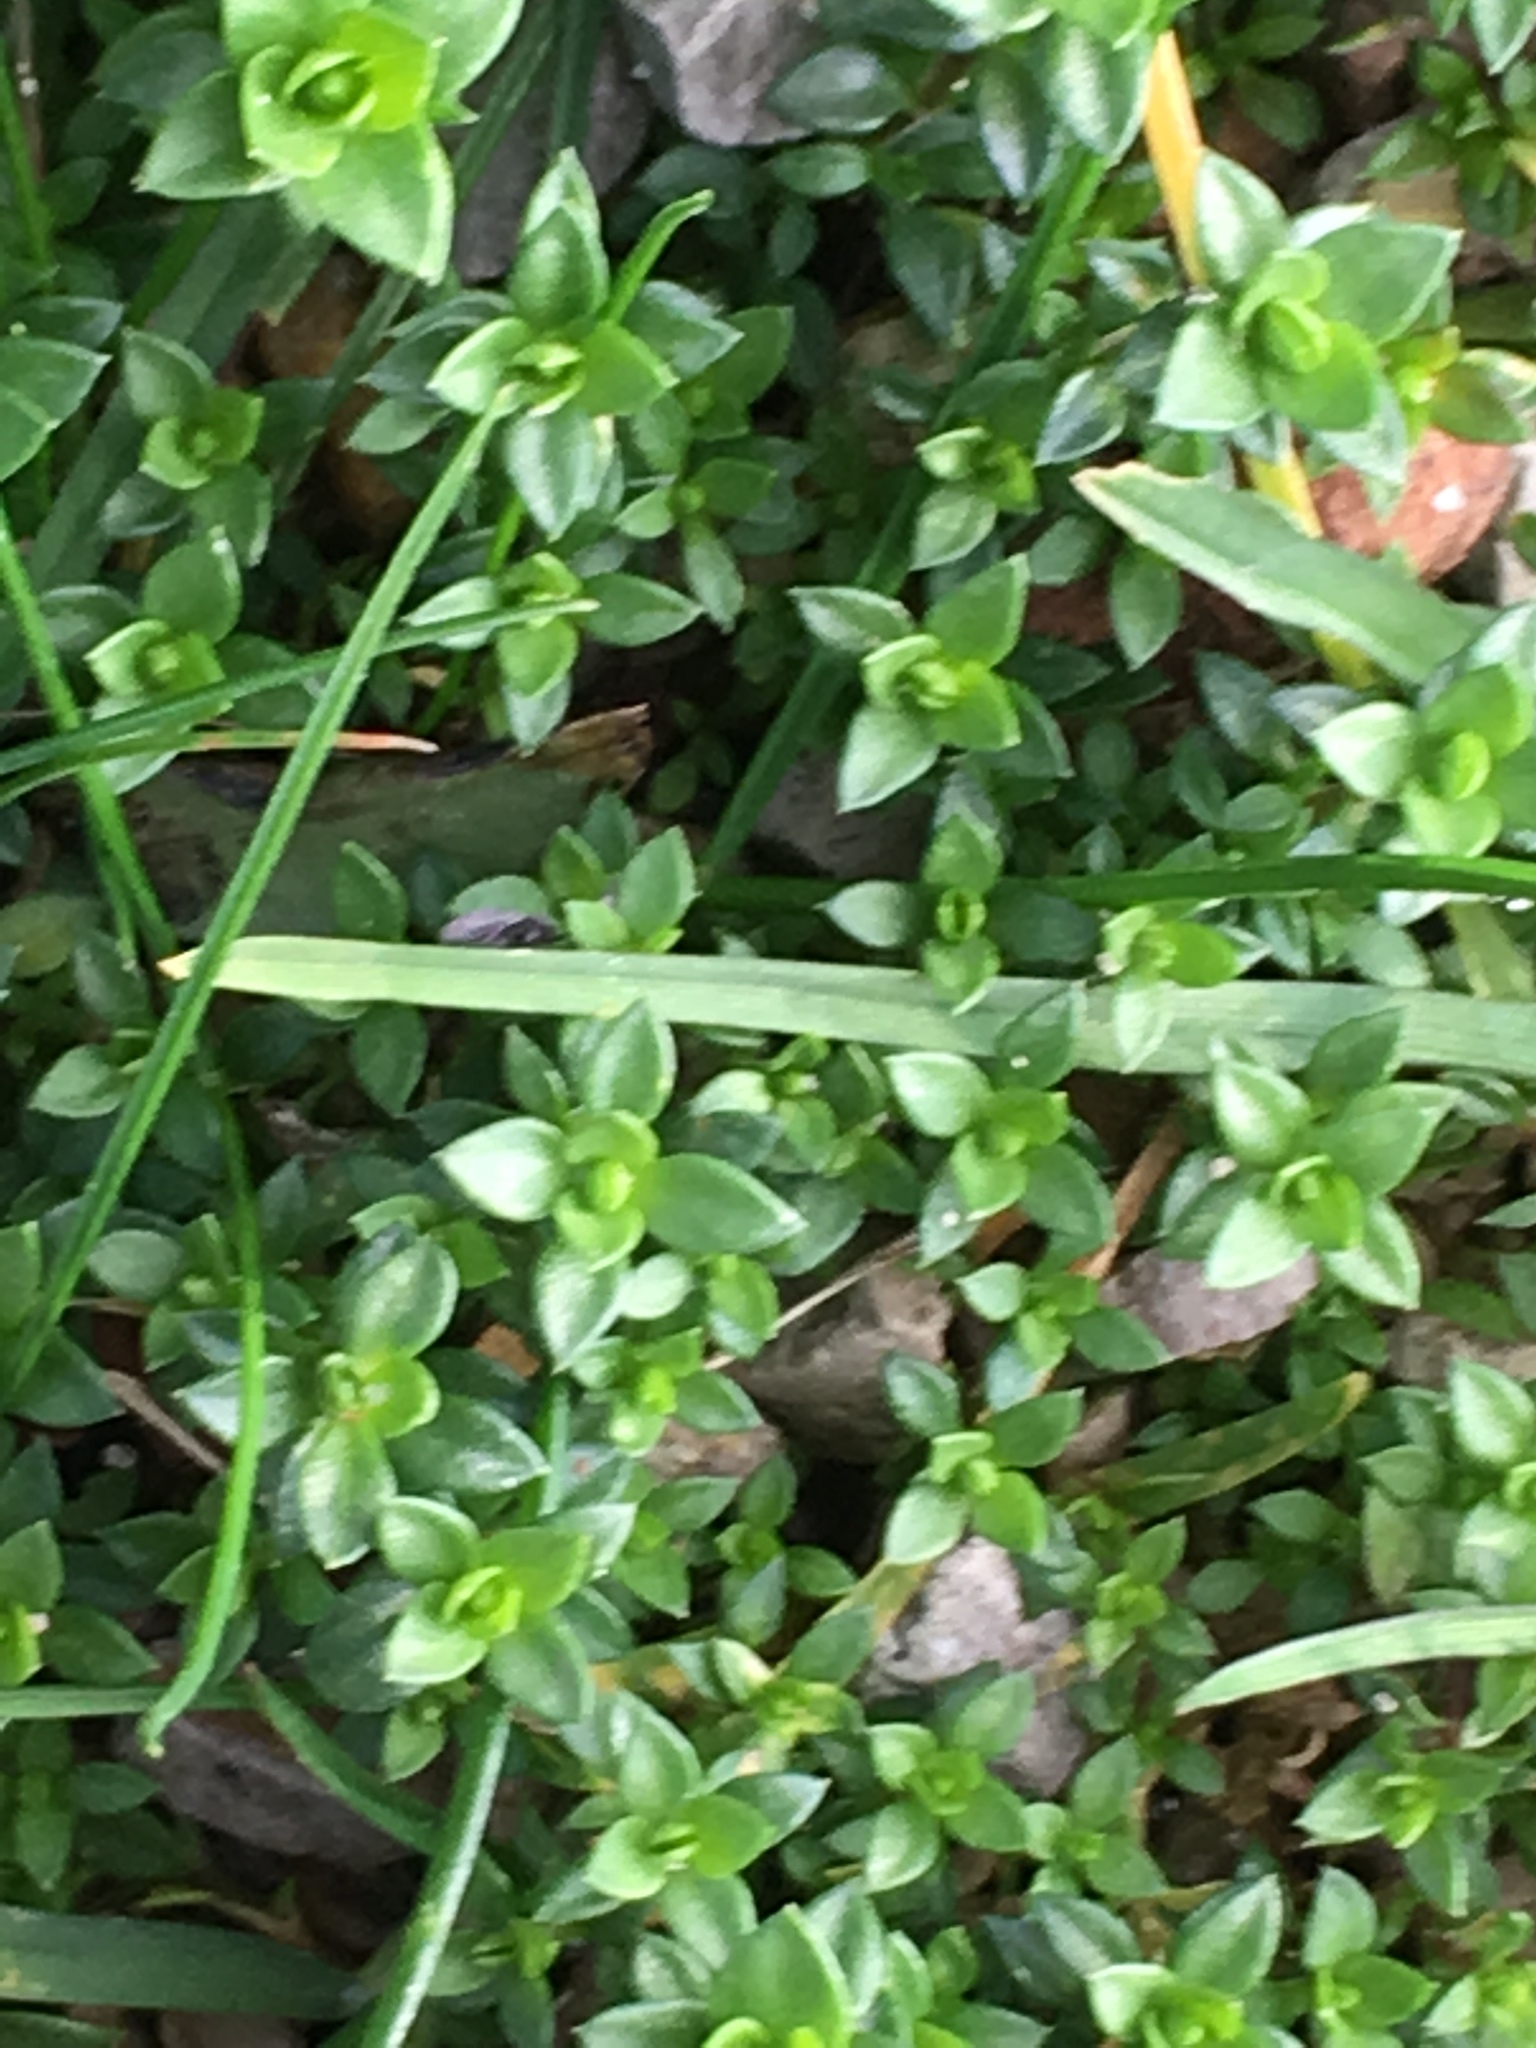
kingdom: Plantae
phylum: Tracheophyta
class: Magnoliopsida
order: Caryophyllales
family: Caryophyllaceae
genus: Arenaria
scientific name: Arenaria serpyllifolia
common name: Thyme-leaved sandwort
